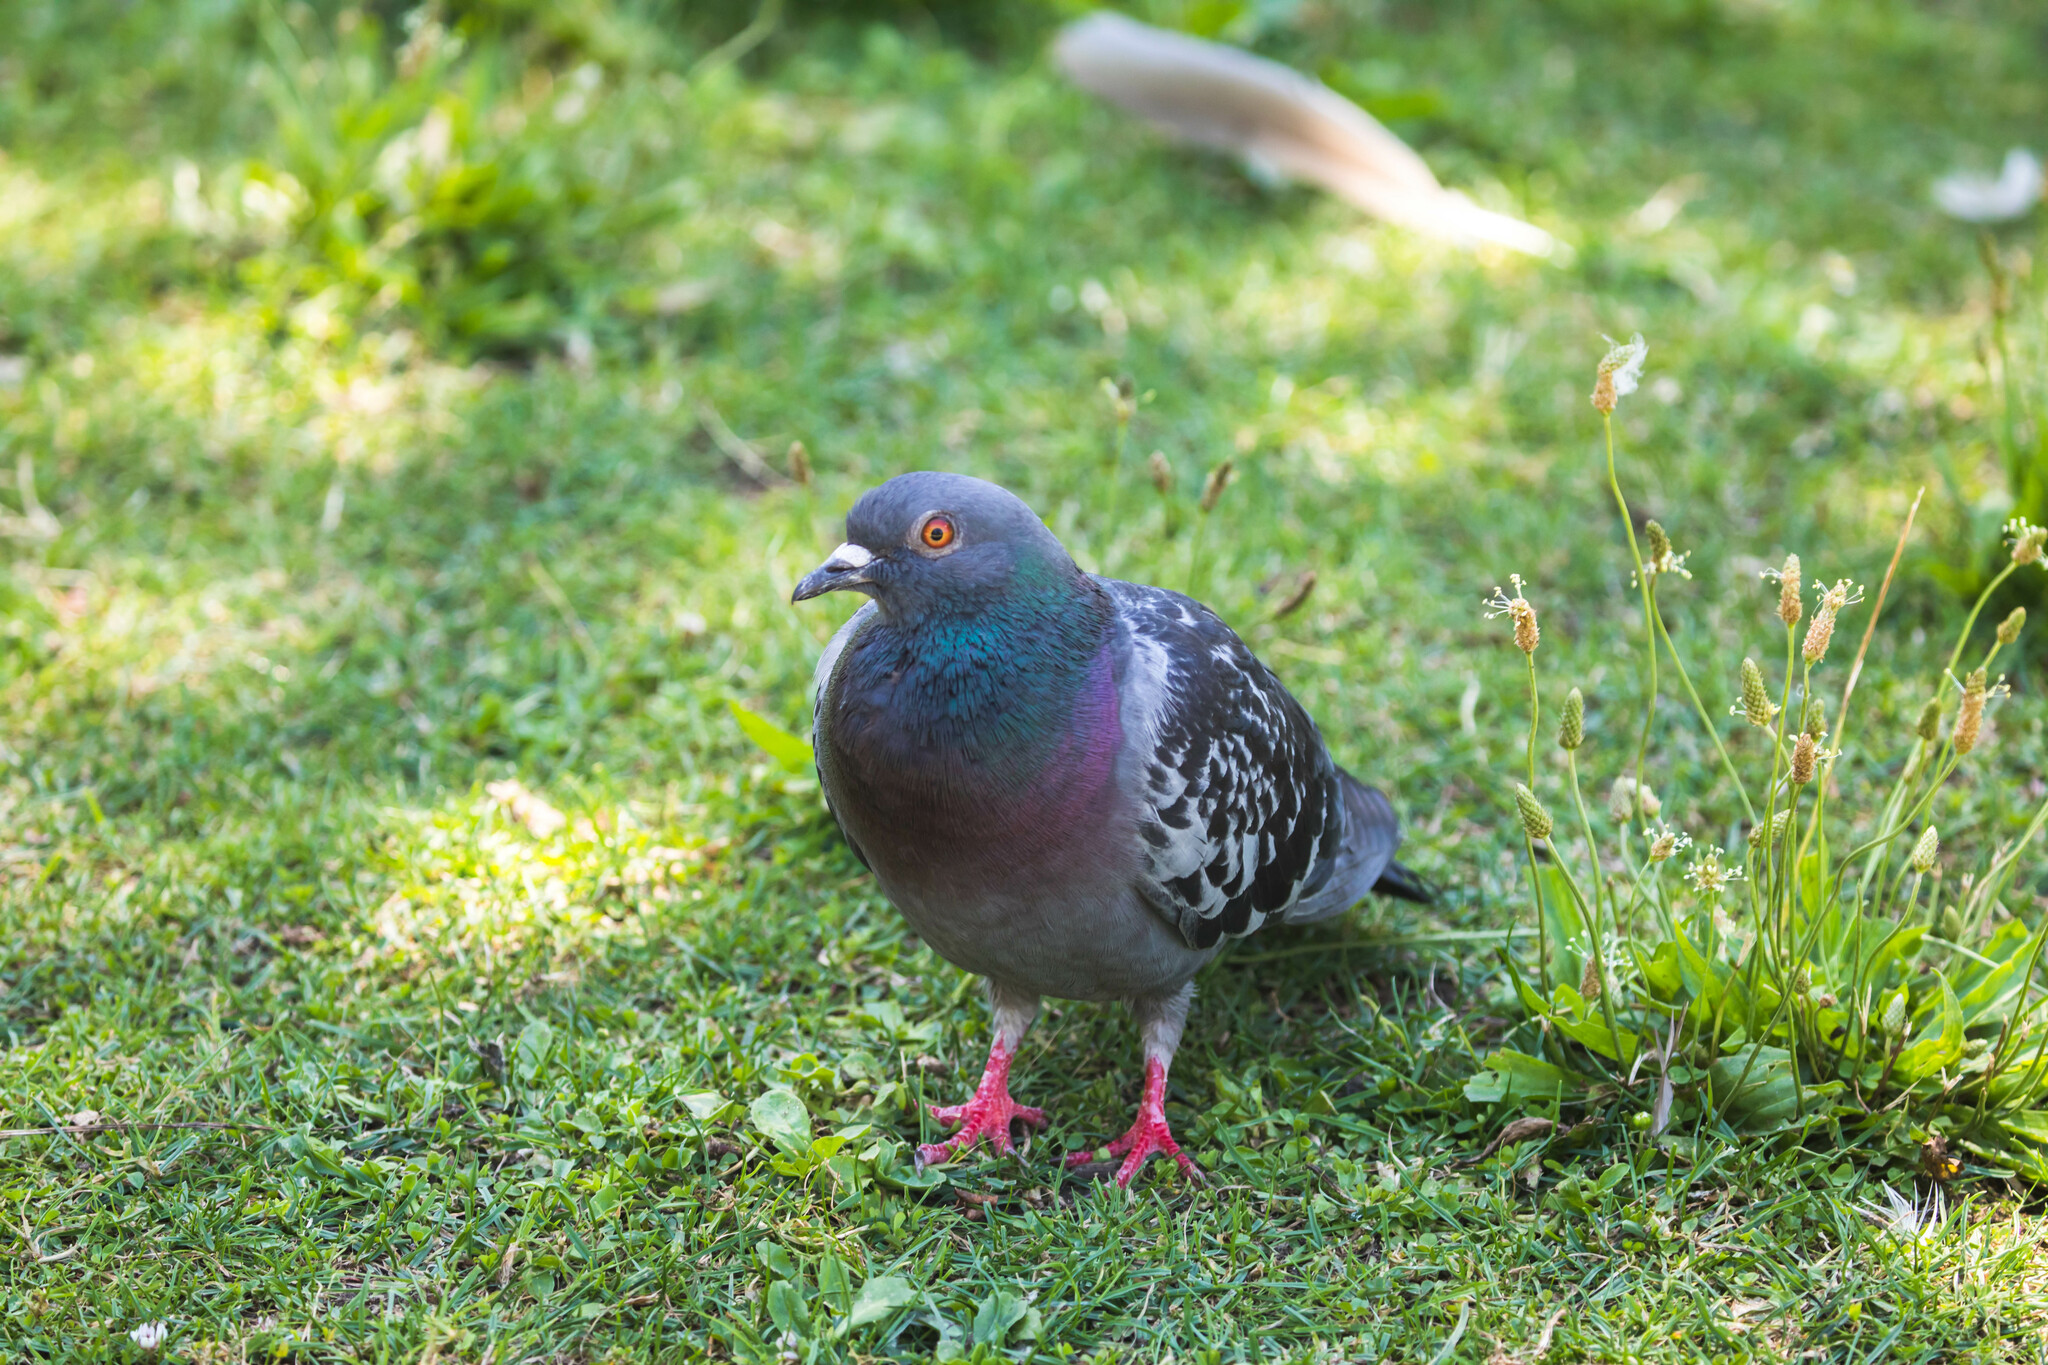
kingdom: Animalia
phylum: Chordata
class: Aves
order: Columbiformes
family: Columbidae
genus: Columba
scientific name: Columba livia
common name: Rock pigeon
